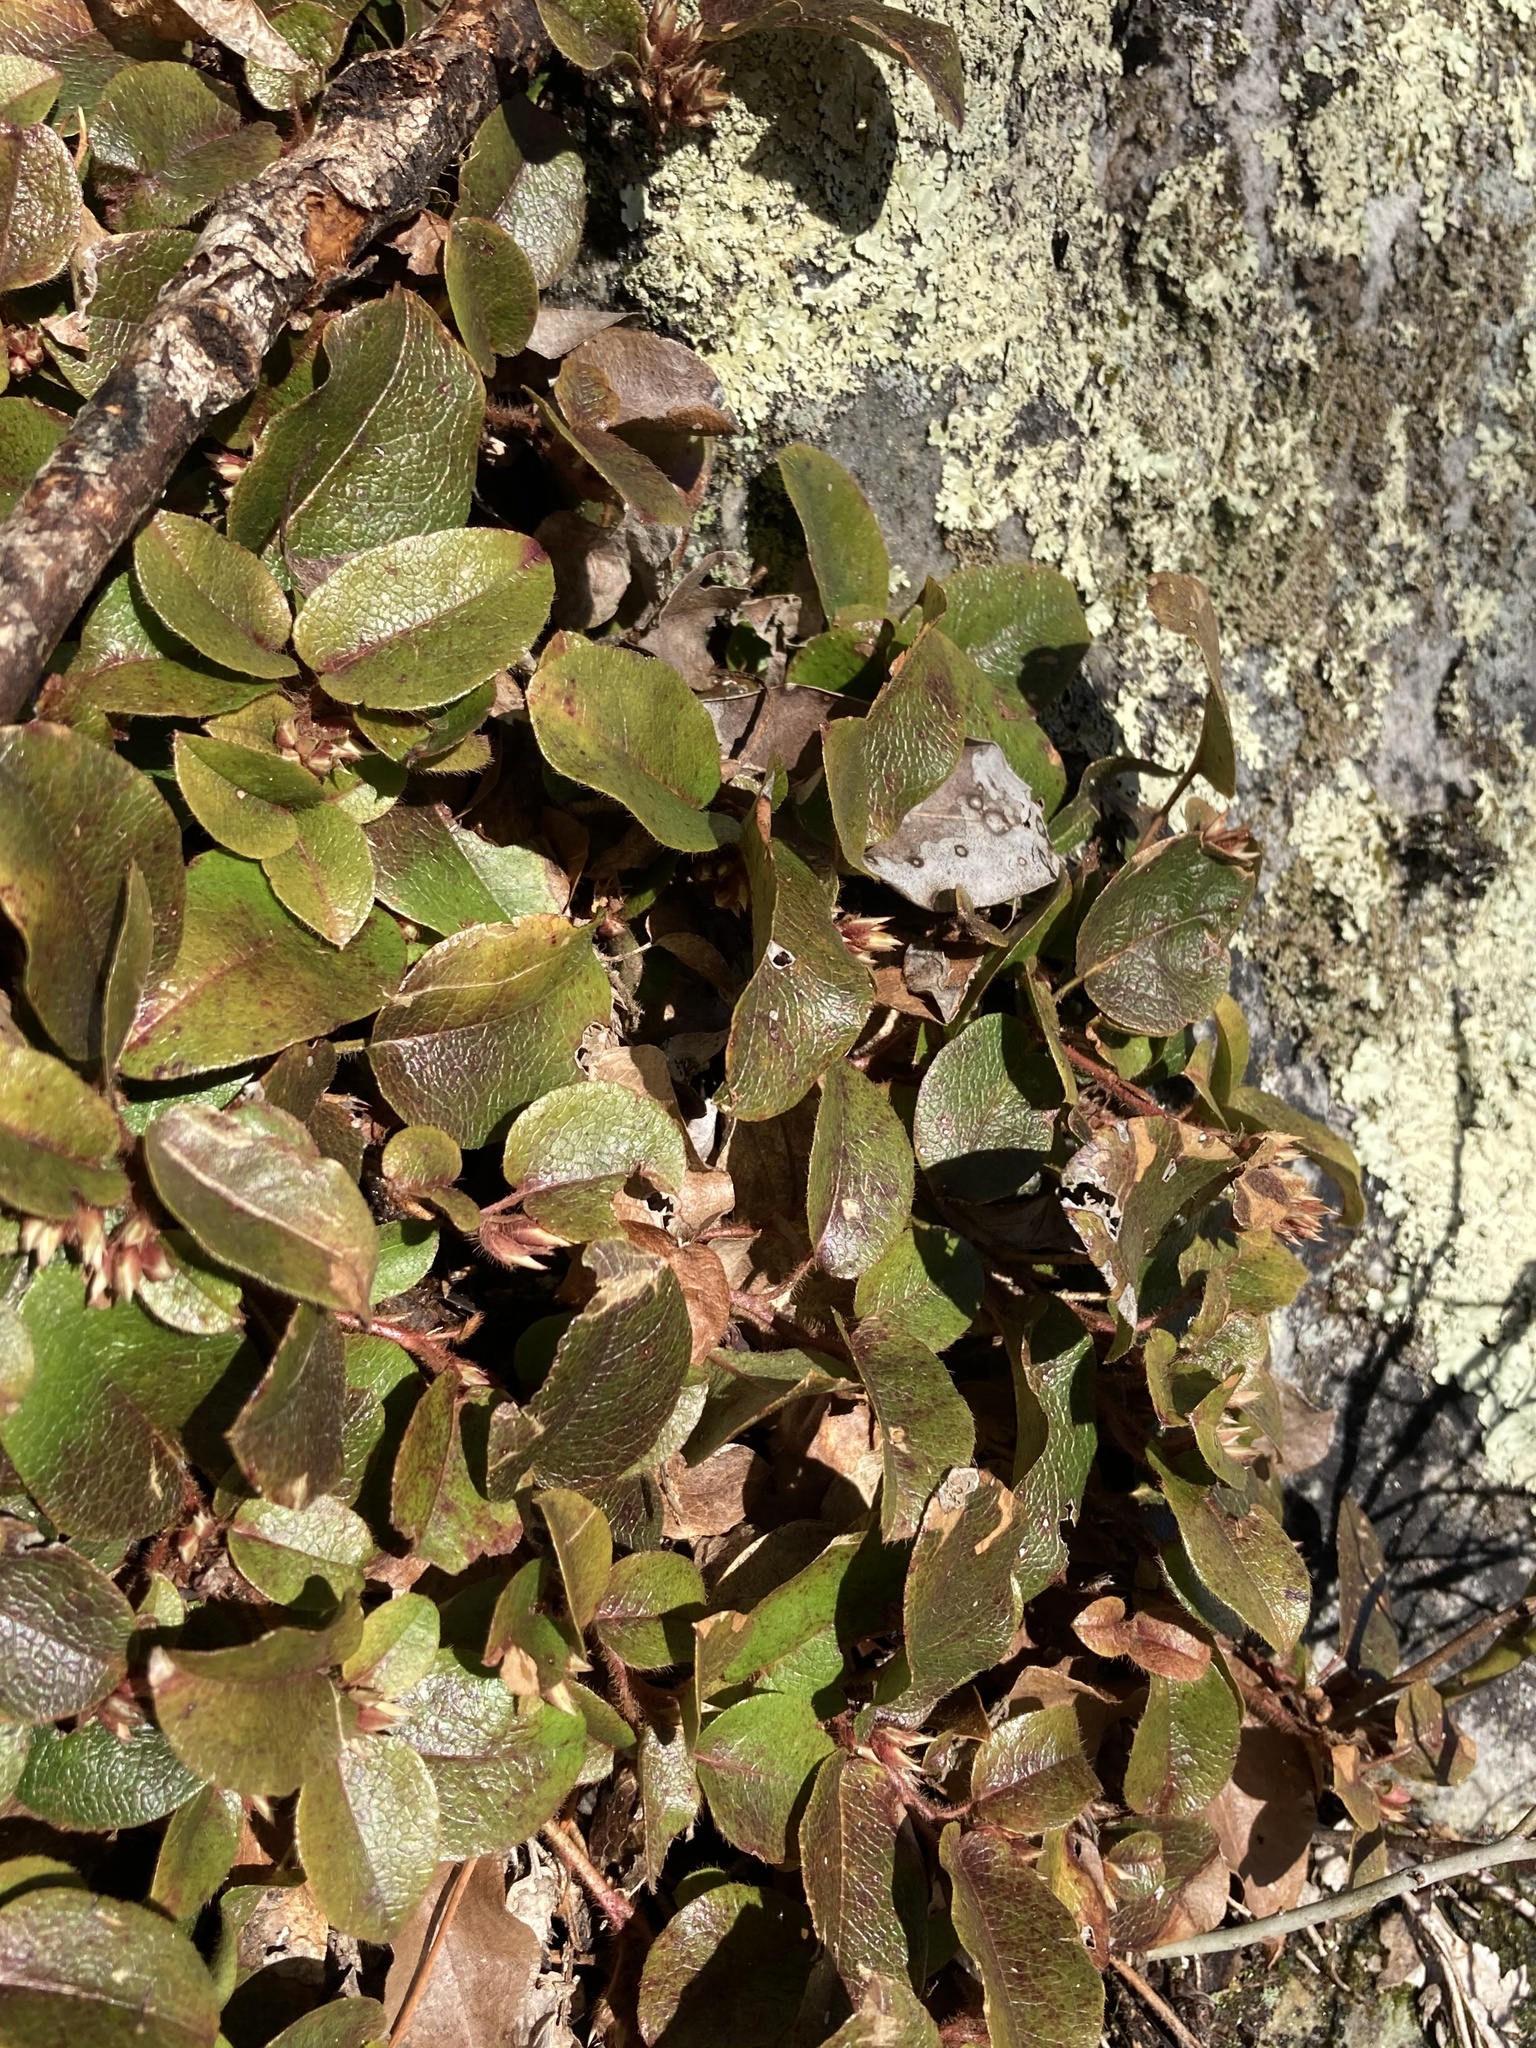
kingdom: Plantae
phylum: Tracheophyta
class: Magnoliopsida
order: Ericales
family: Ericaceae
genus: Epigaea
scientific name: Epigaea repens
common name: Gravelroot
